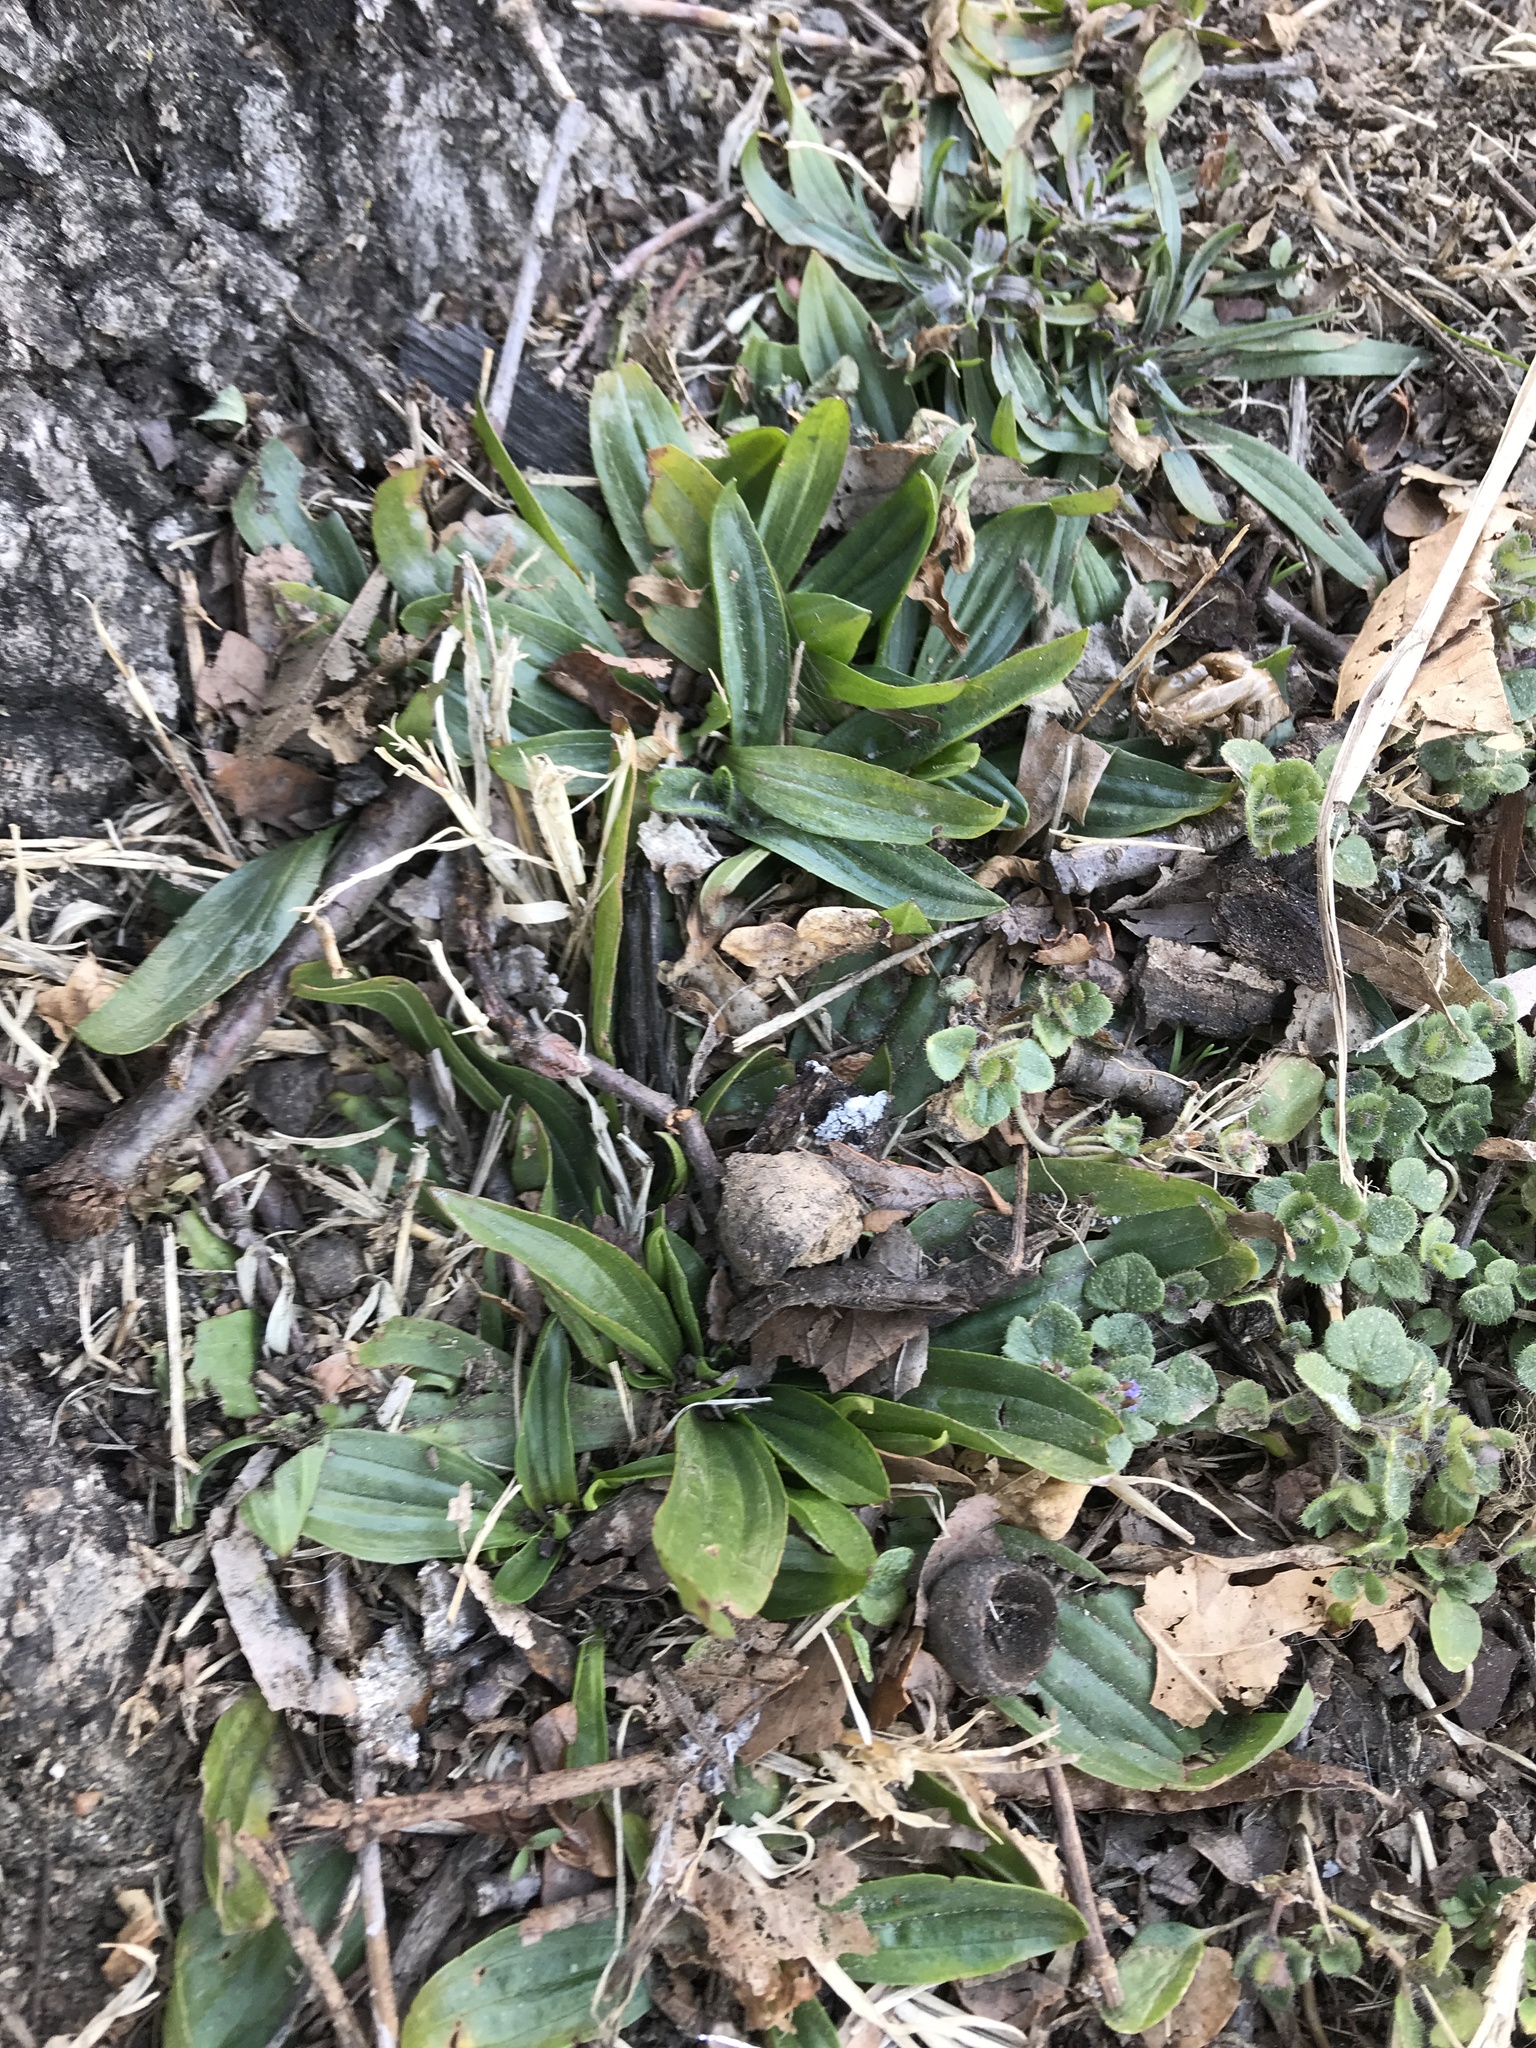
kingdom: Plantae
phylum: Tracheophyta
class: Magnoliopsida
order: Lamiales
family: Plantaginaceae
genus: Plantago
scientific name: Plantago lanceolata
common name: Ribwort plantain
